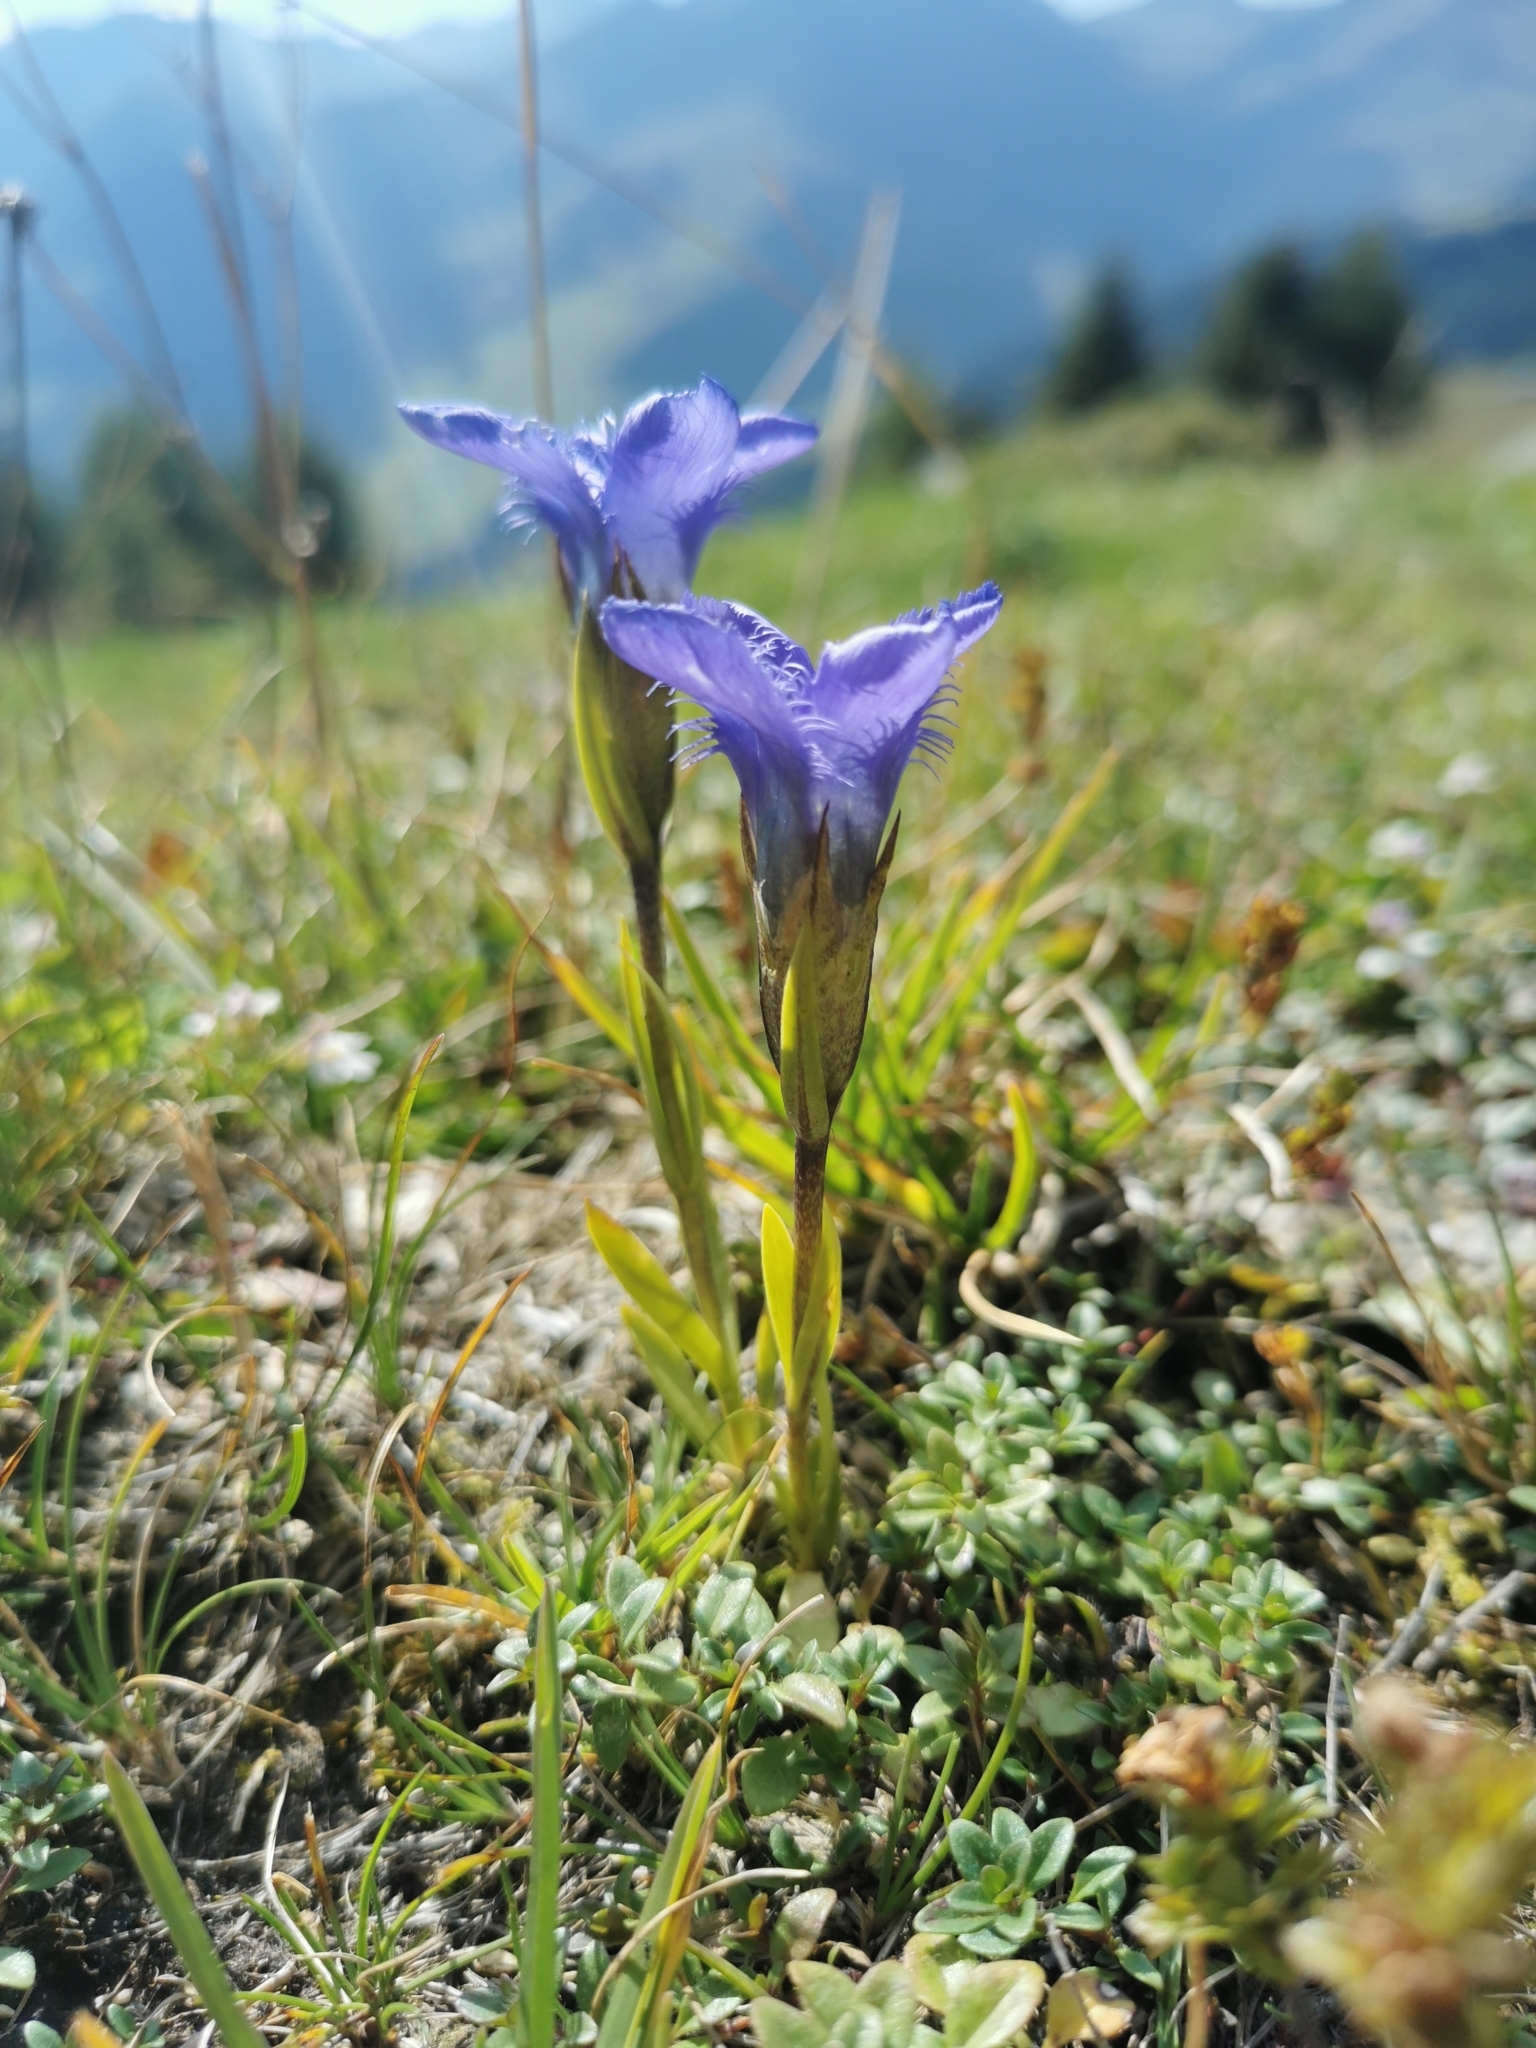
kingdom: Plantae
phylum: Tracheophyta
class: Magnoliopsida
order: Gentianales
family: Gentianaceae
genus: Gentianopsis
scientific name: Gentianopsis ciliata
